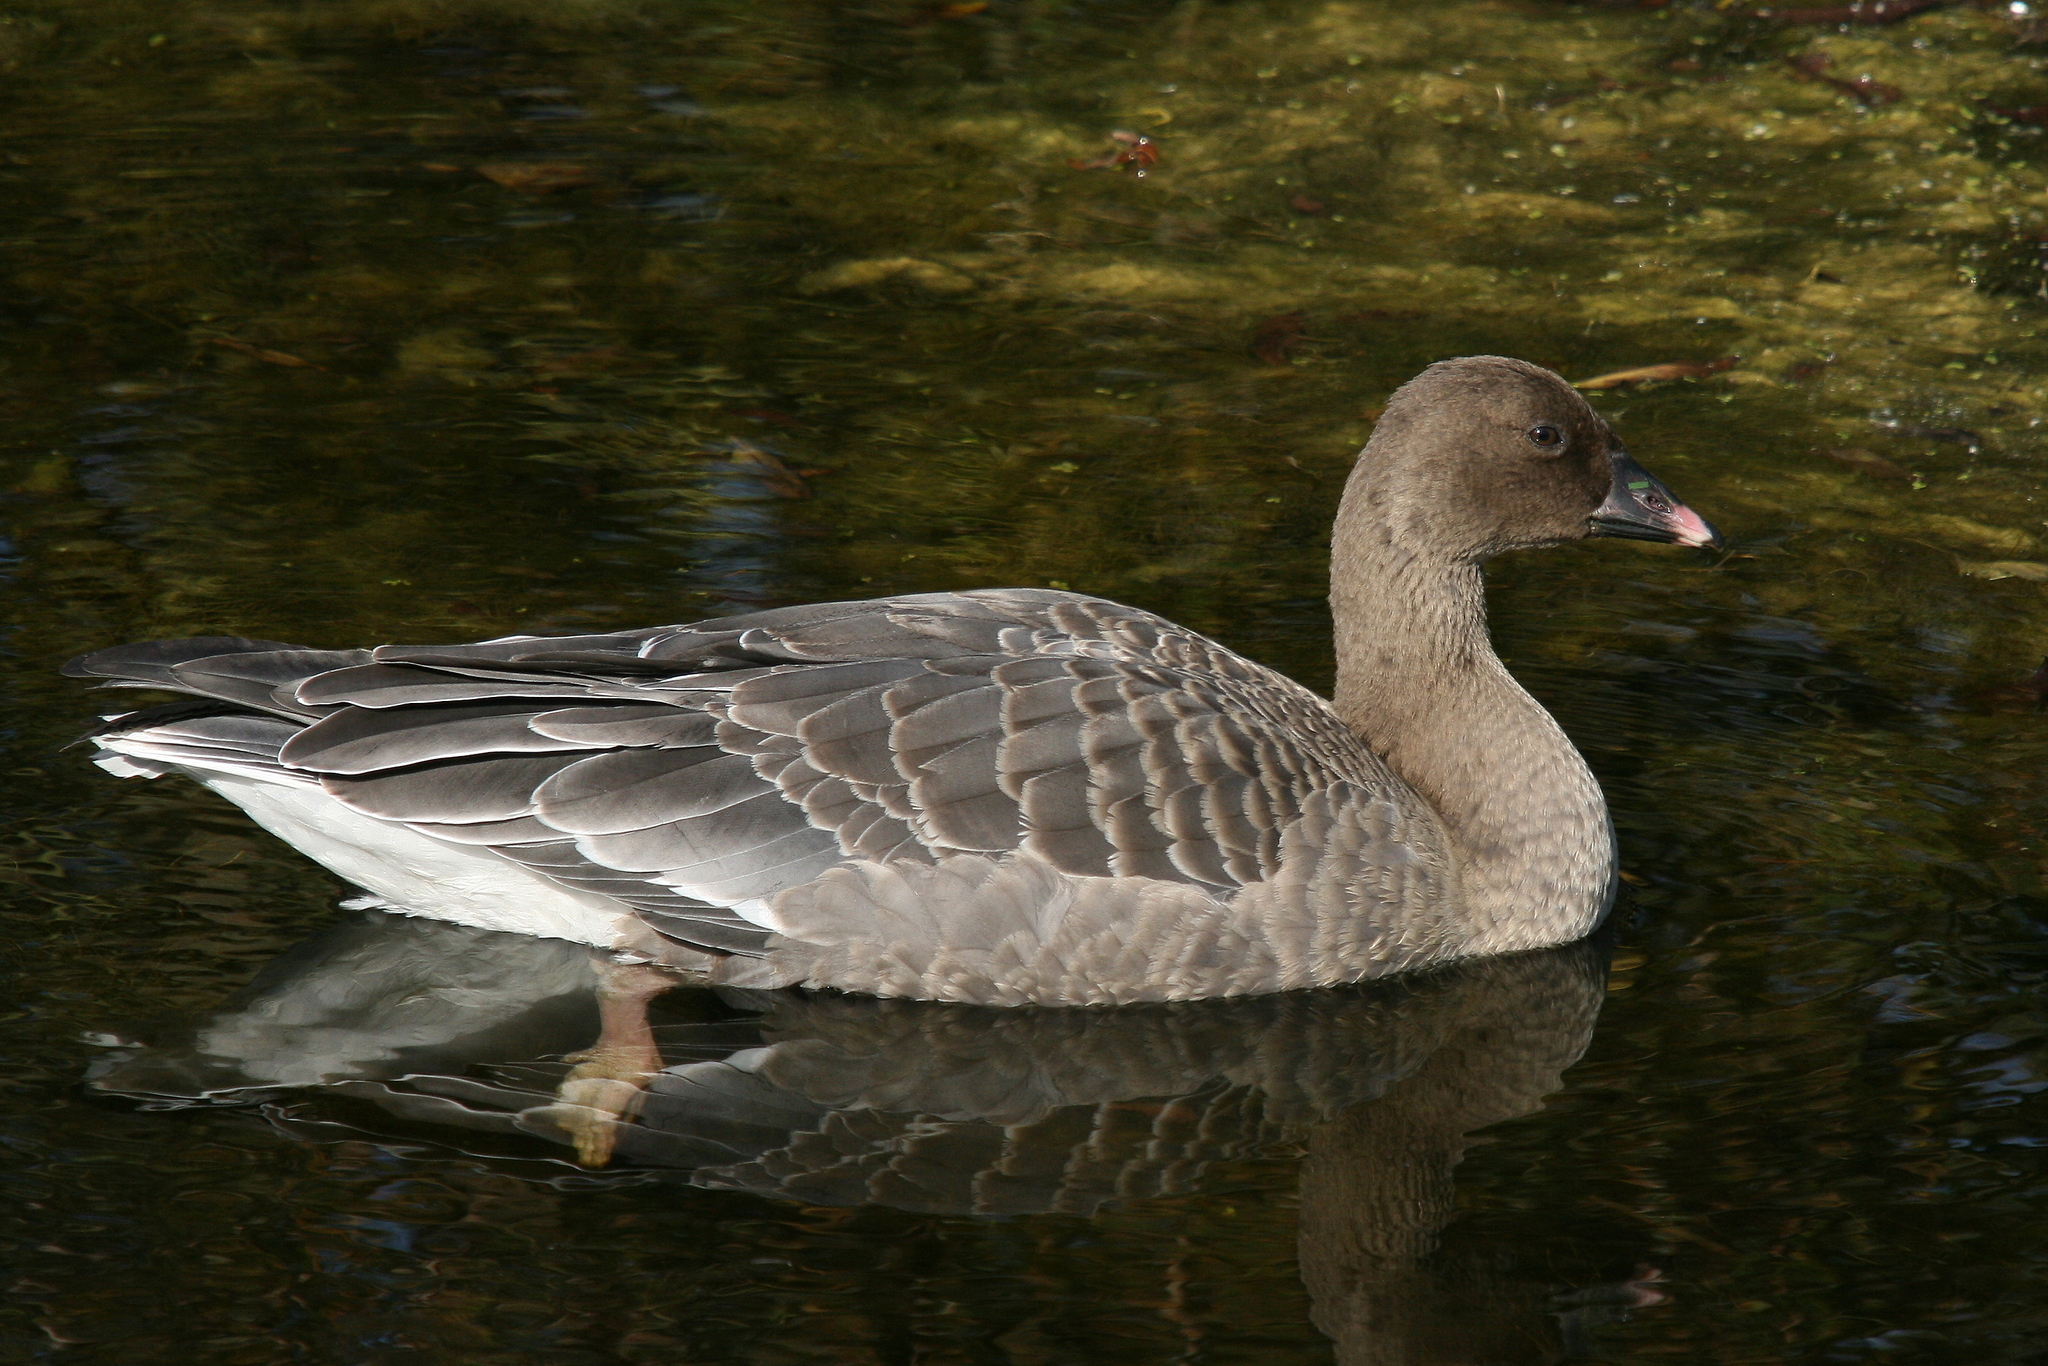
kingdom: Animalia
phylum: Chordata
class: Aves
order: Anseriformes
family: Anatidae
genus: Anser
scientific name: Anser brachyrhynchus
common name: Pink-footed goose
